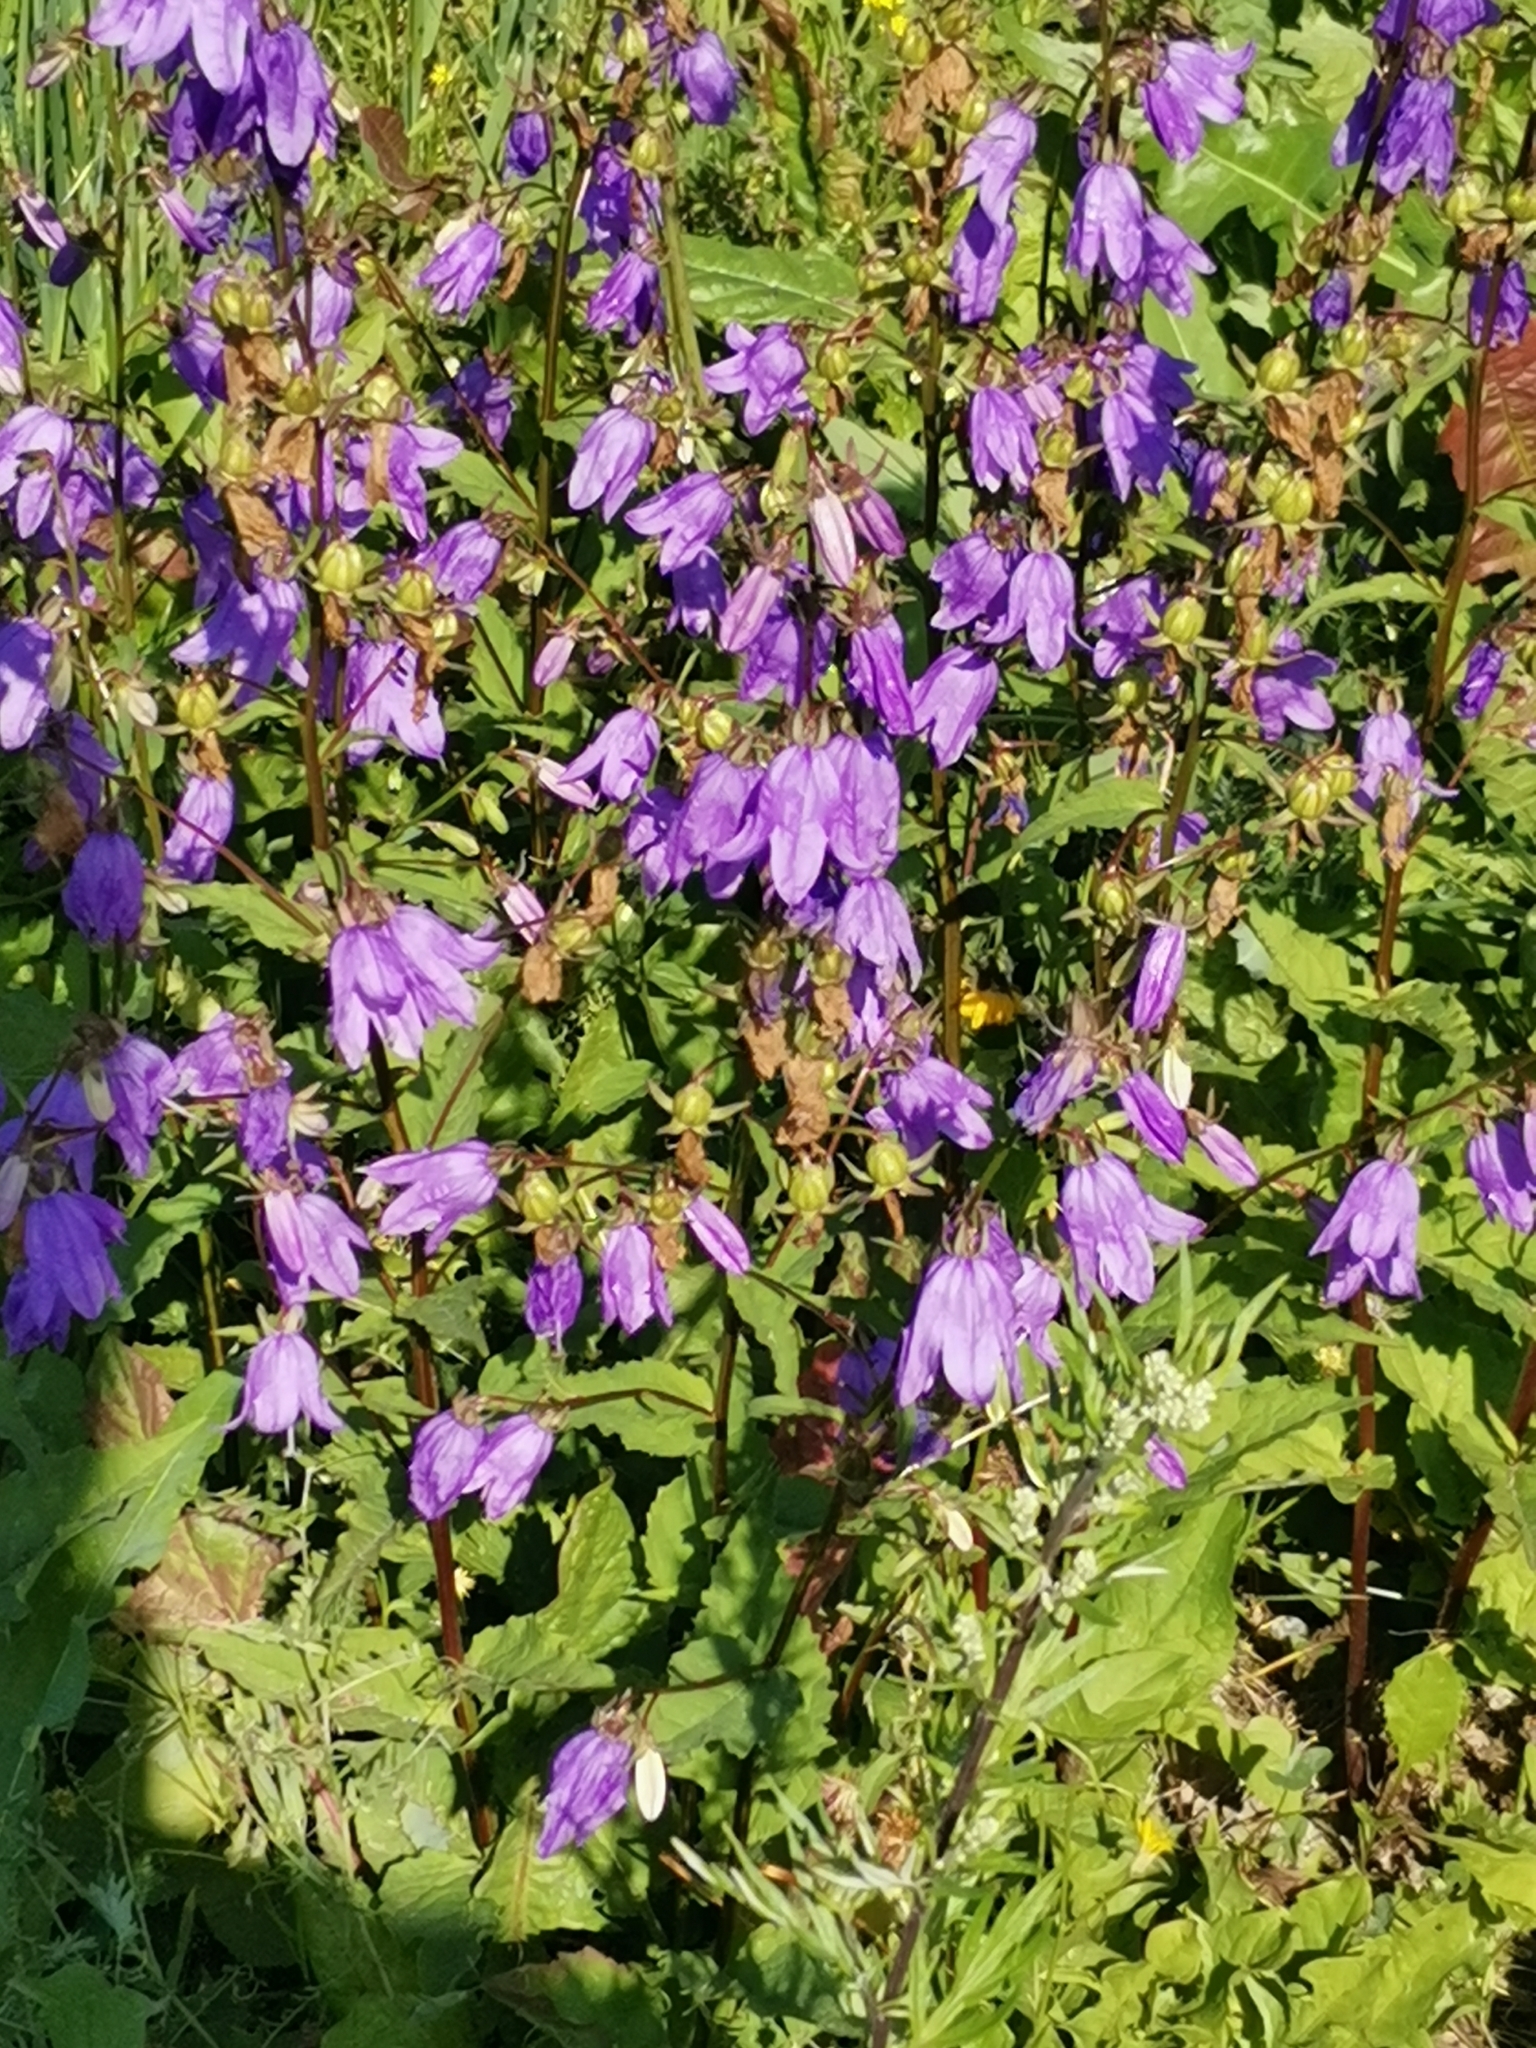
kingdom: Plantae
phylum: Tracheophyta
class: Magnoliopsida
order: Asterales
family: Campanulaceae
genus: Campanula
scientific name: Campanula rapunculoides
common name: Creeping bellflower
